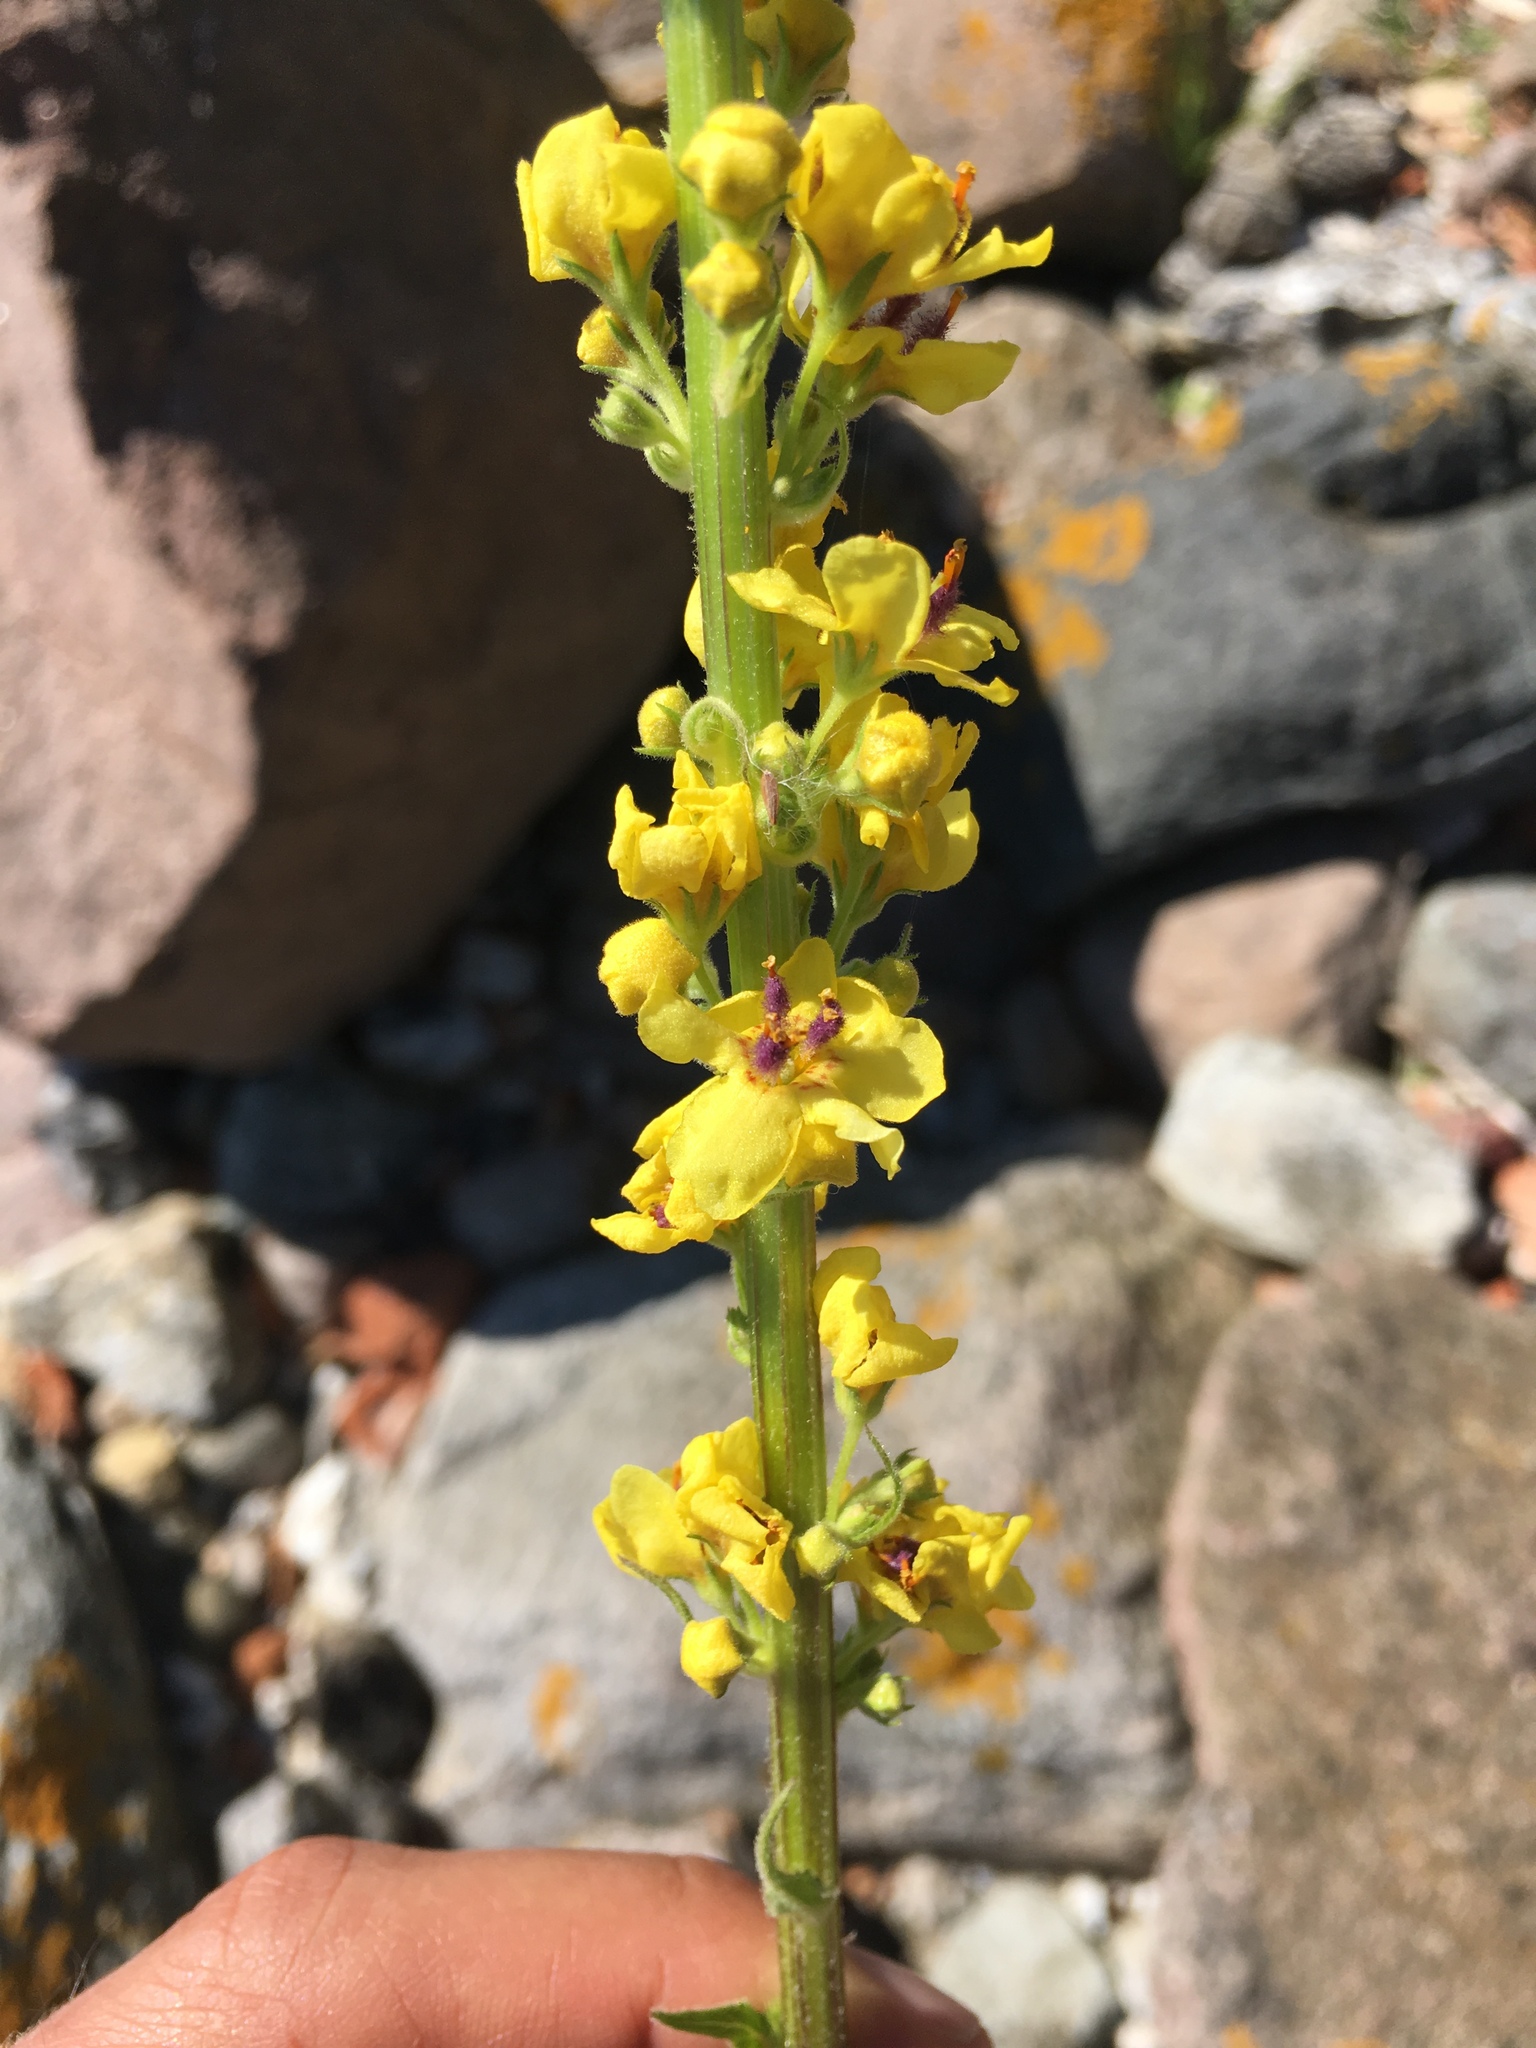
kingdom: Plantae
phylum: Tracheophyta
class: Magnoliopsida
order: Lamiales
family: Scrophulariaceae
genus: Verbascum
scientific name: Verbascum nigrum
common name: Dark mullein
